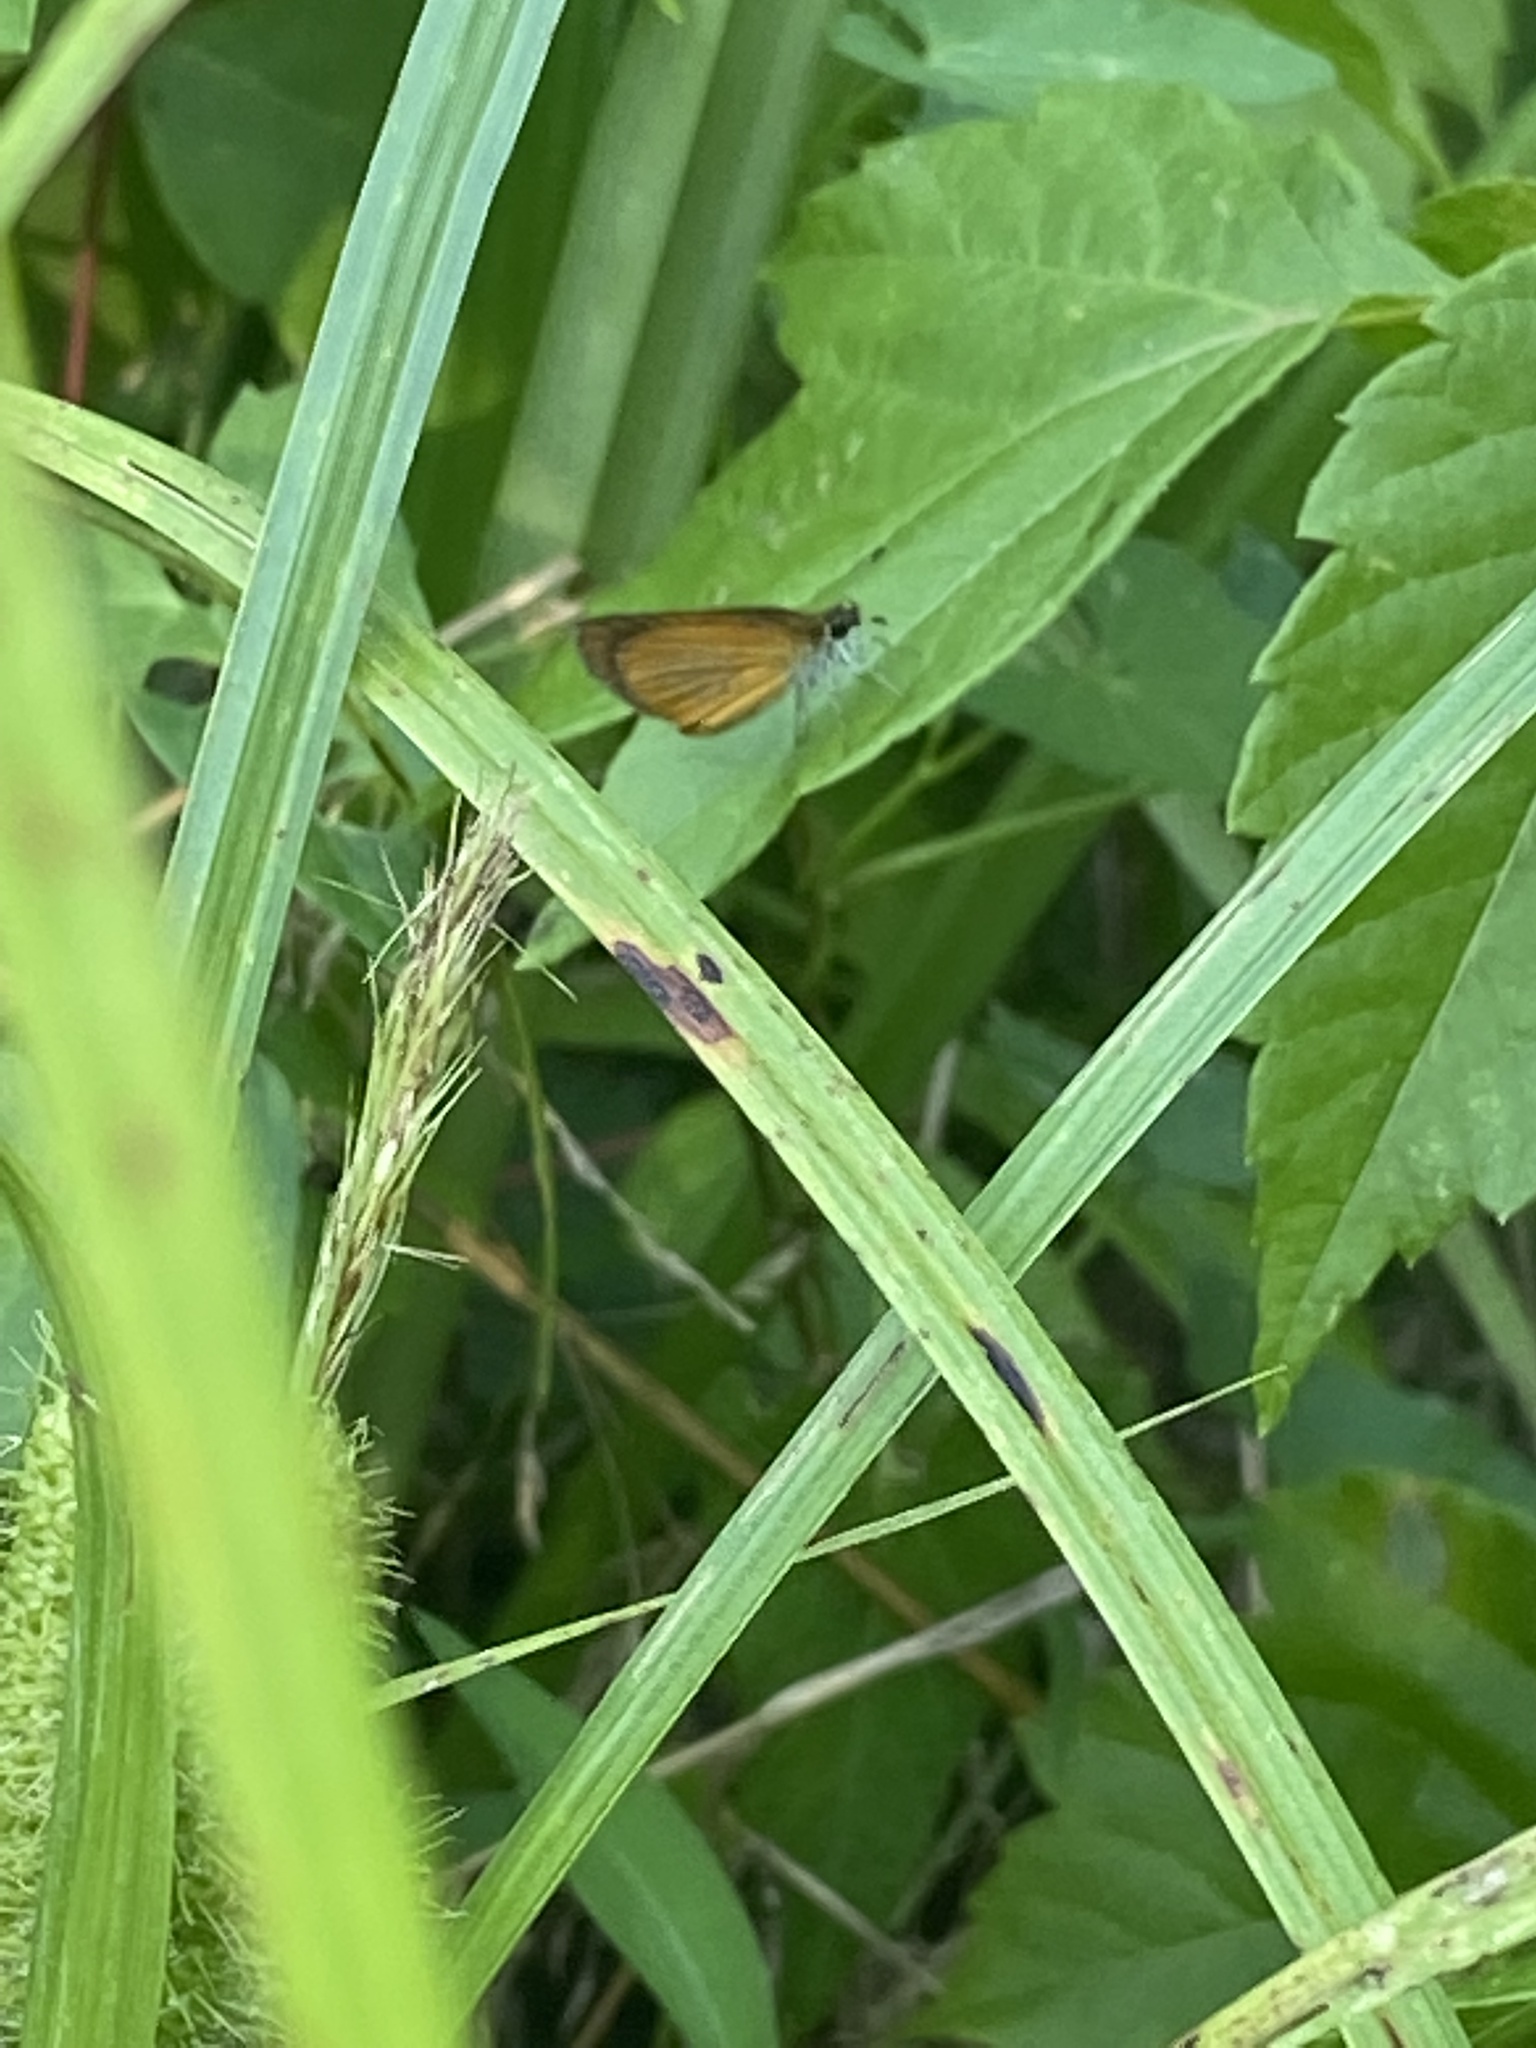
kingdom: Animalia
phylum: Arthropoda
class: Insecta
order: Lepidoptera
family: Hesperiidae
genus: Ancyloxypha
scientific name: Ancyloxypha numitor
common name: Least skipper
